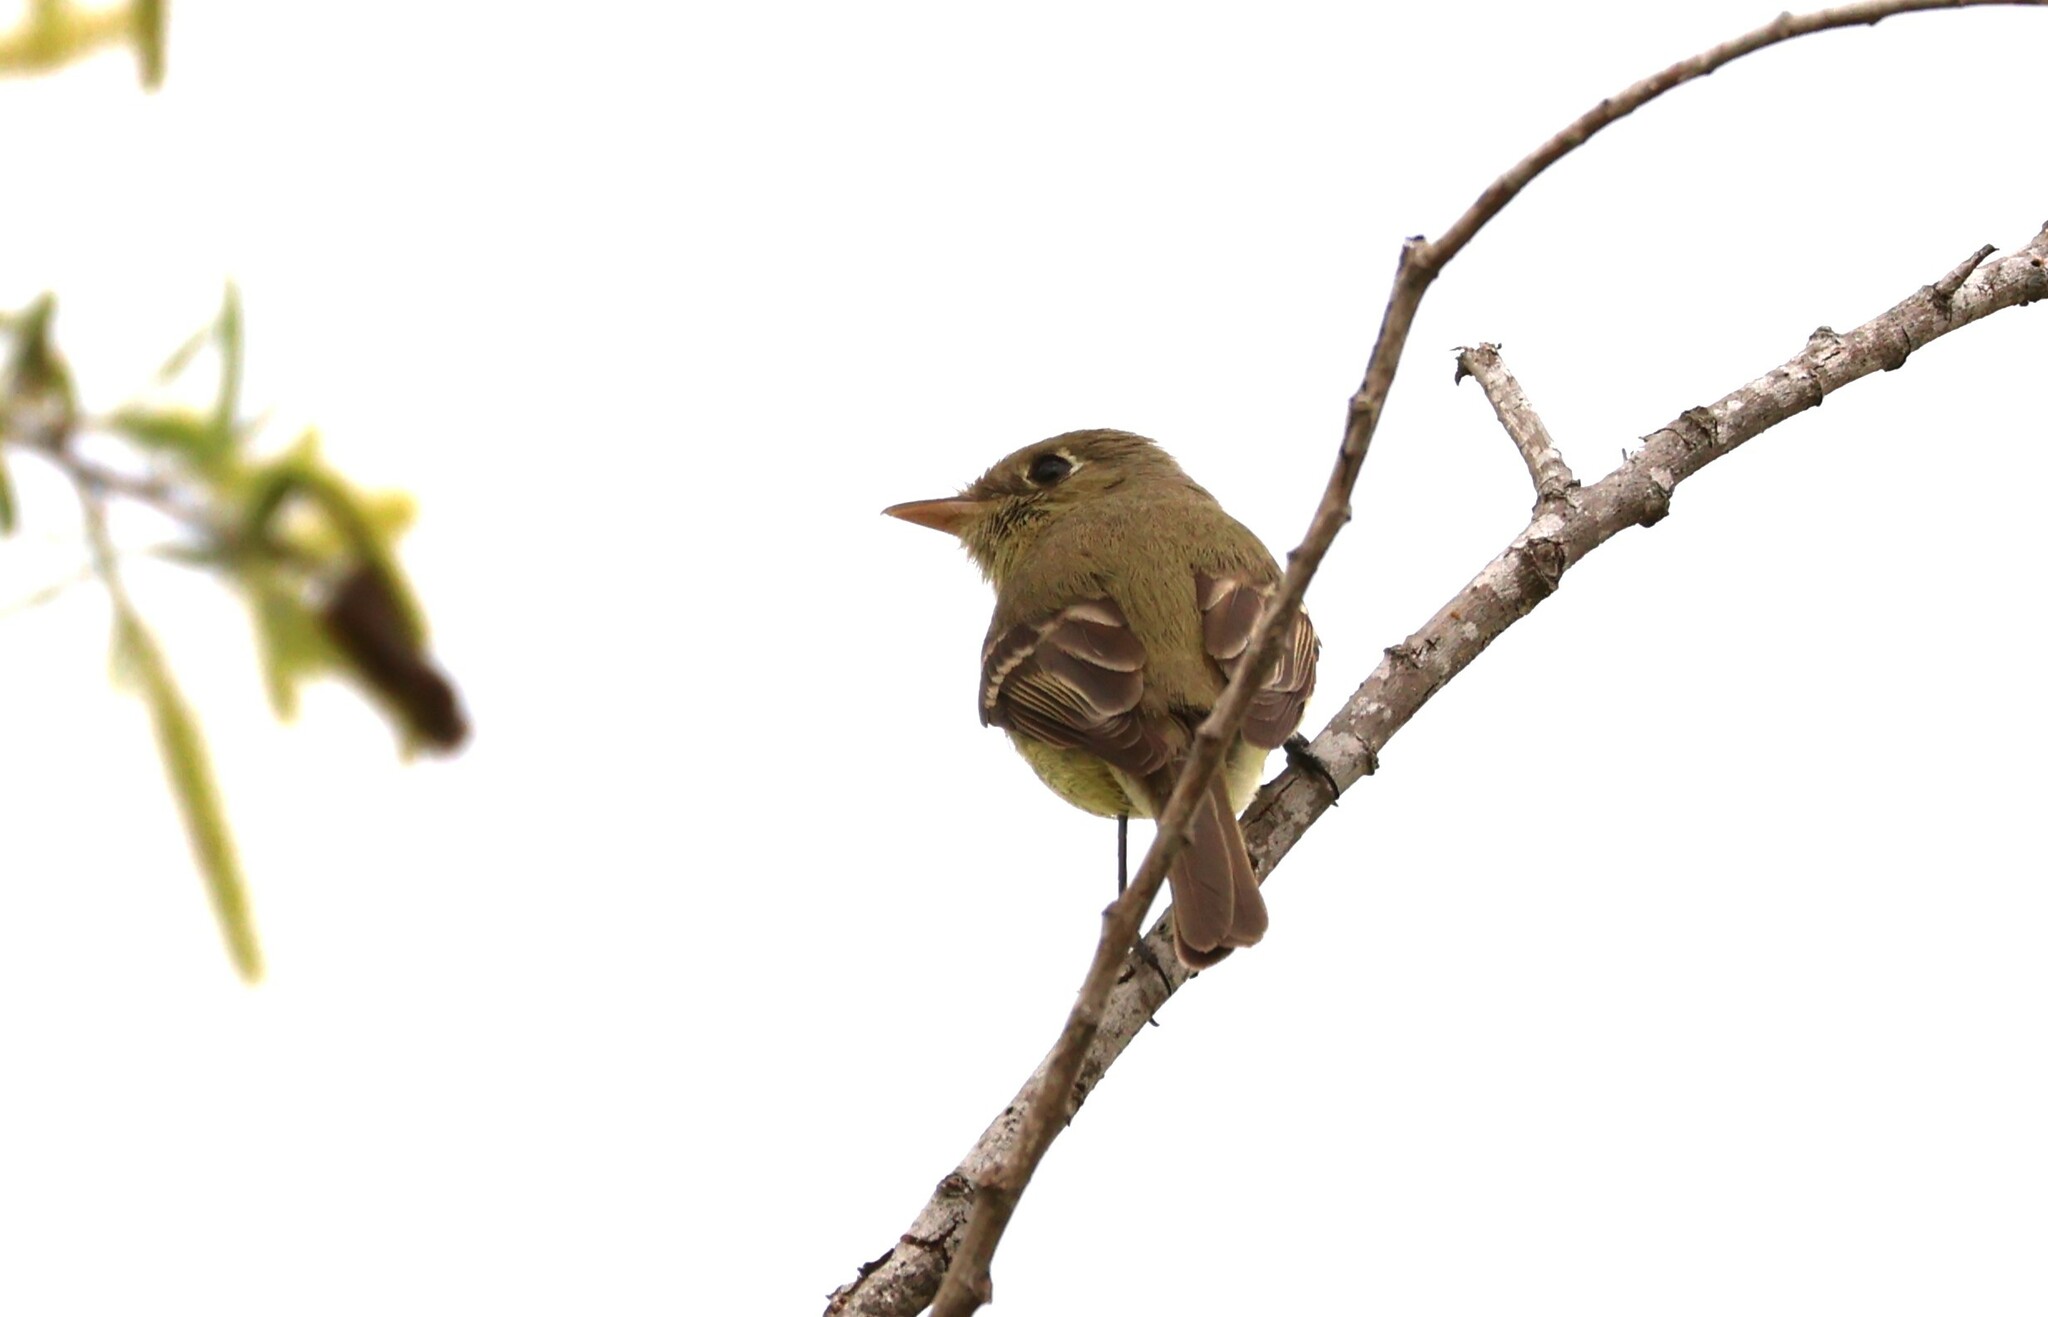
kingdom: Animalia
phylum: Chordata
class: Aves
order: Passeriformes
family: Tyrannidae
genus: Empidonax
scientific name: Empidonax difficilis
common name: Pacific-slope flycatcher
